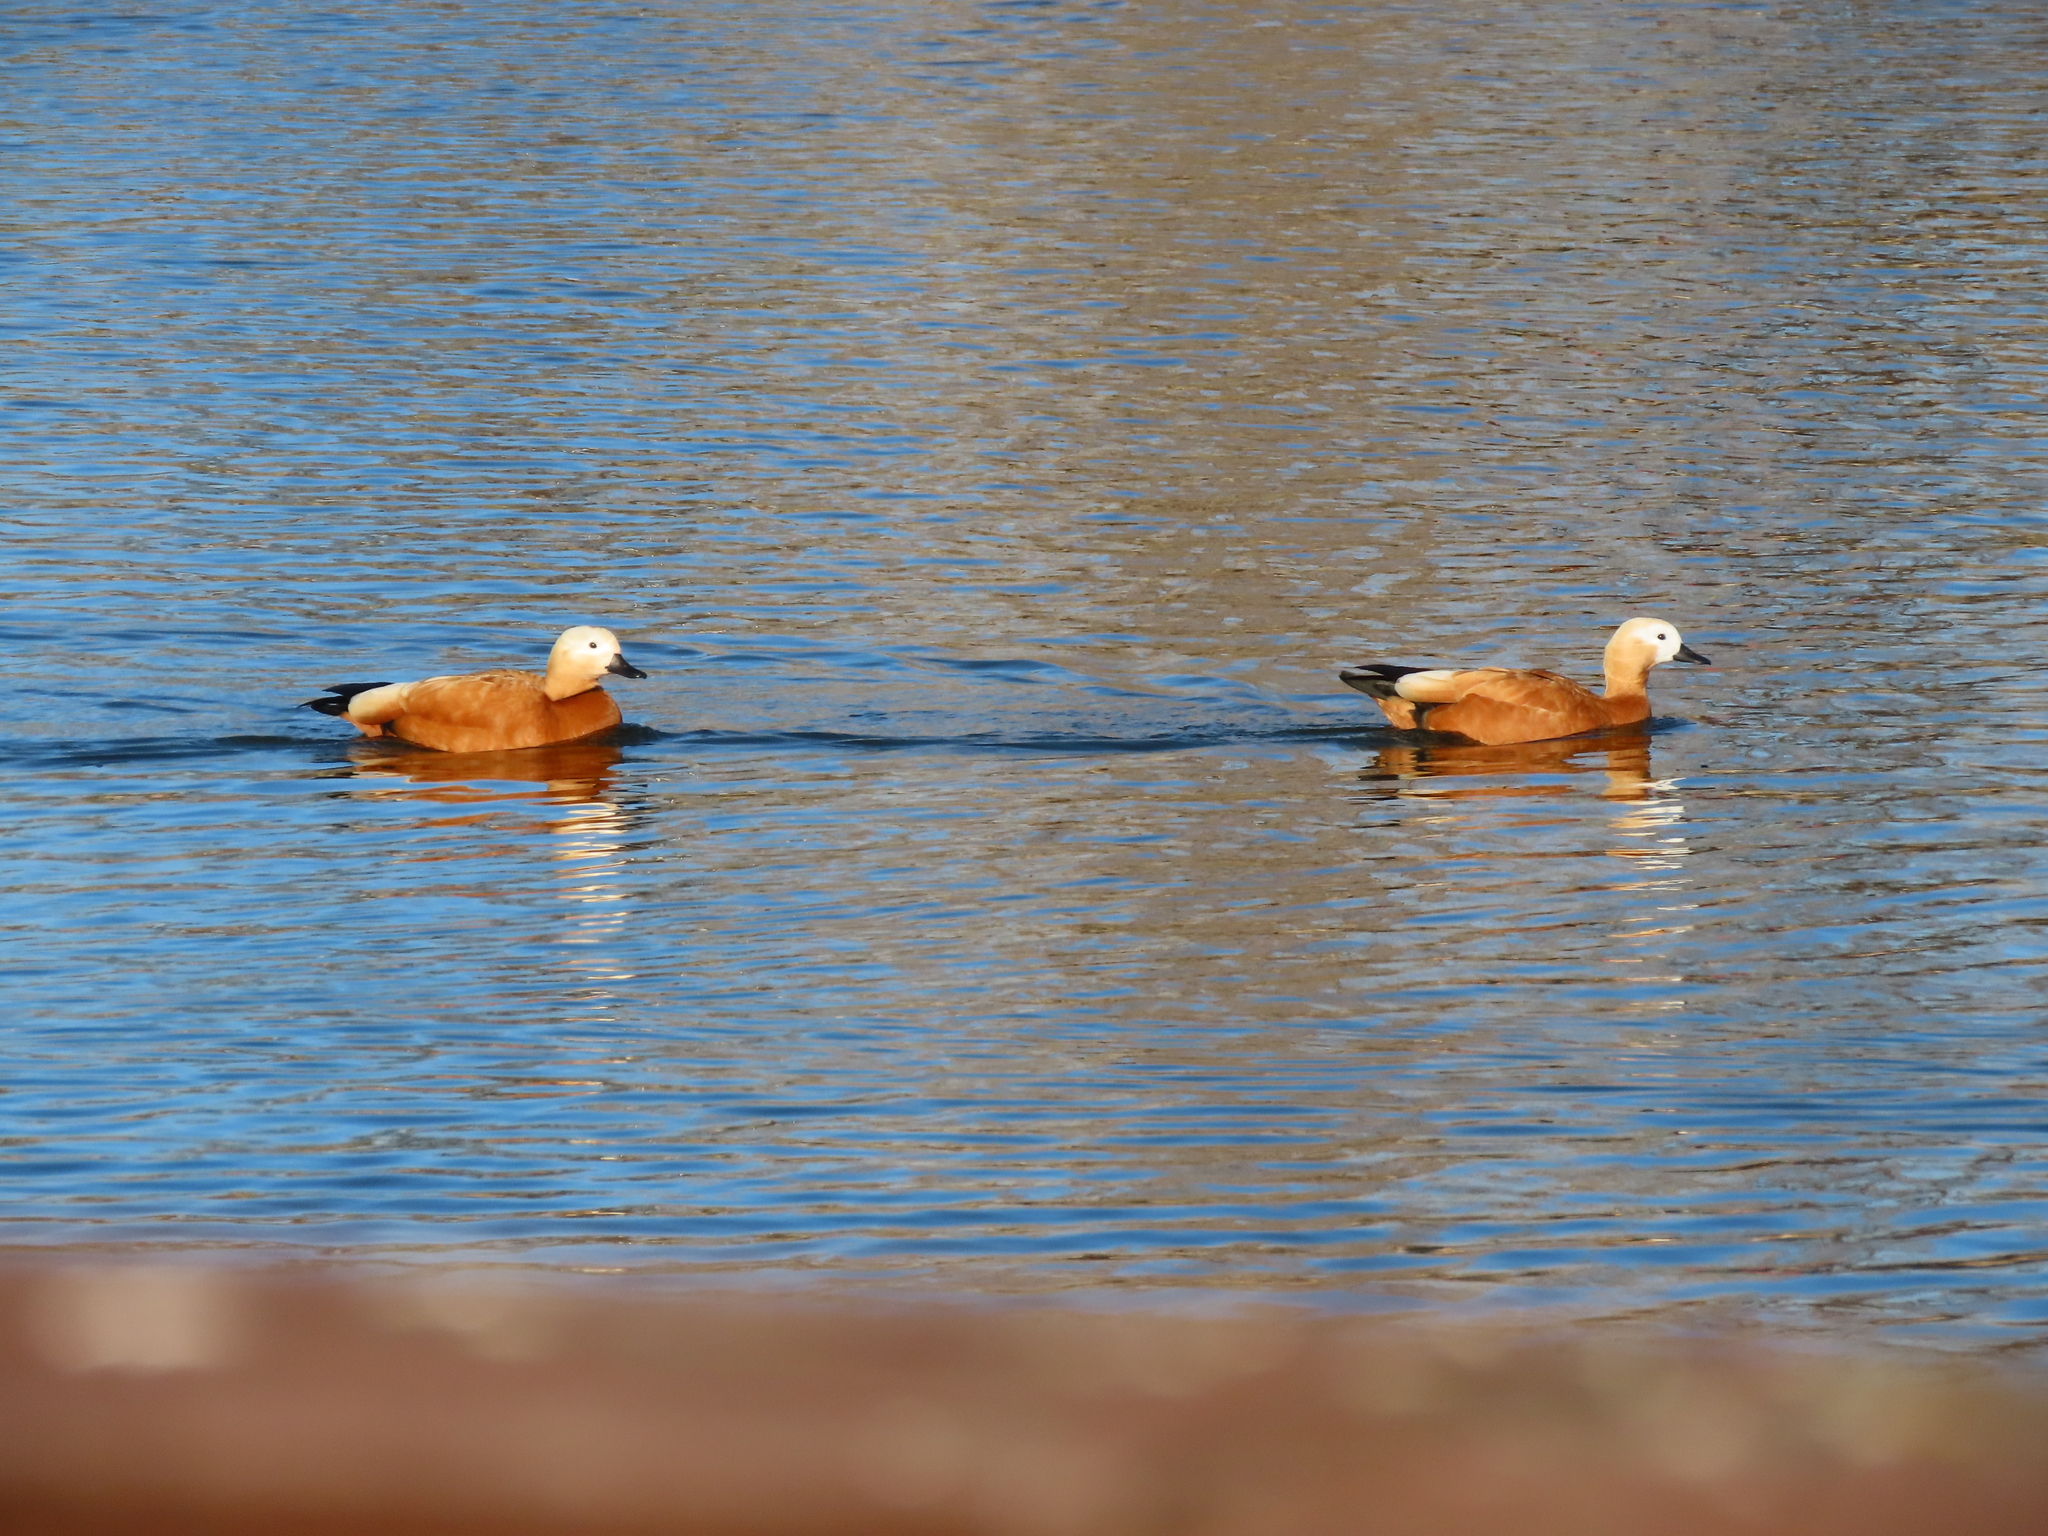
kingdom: Animalia
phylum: Chordata
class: Aves
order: Anseriformes
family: Anatidae
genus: Tadorna
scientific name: Tadorna ferruginea
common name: Ruddy shelduck
